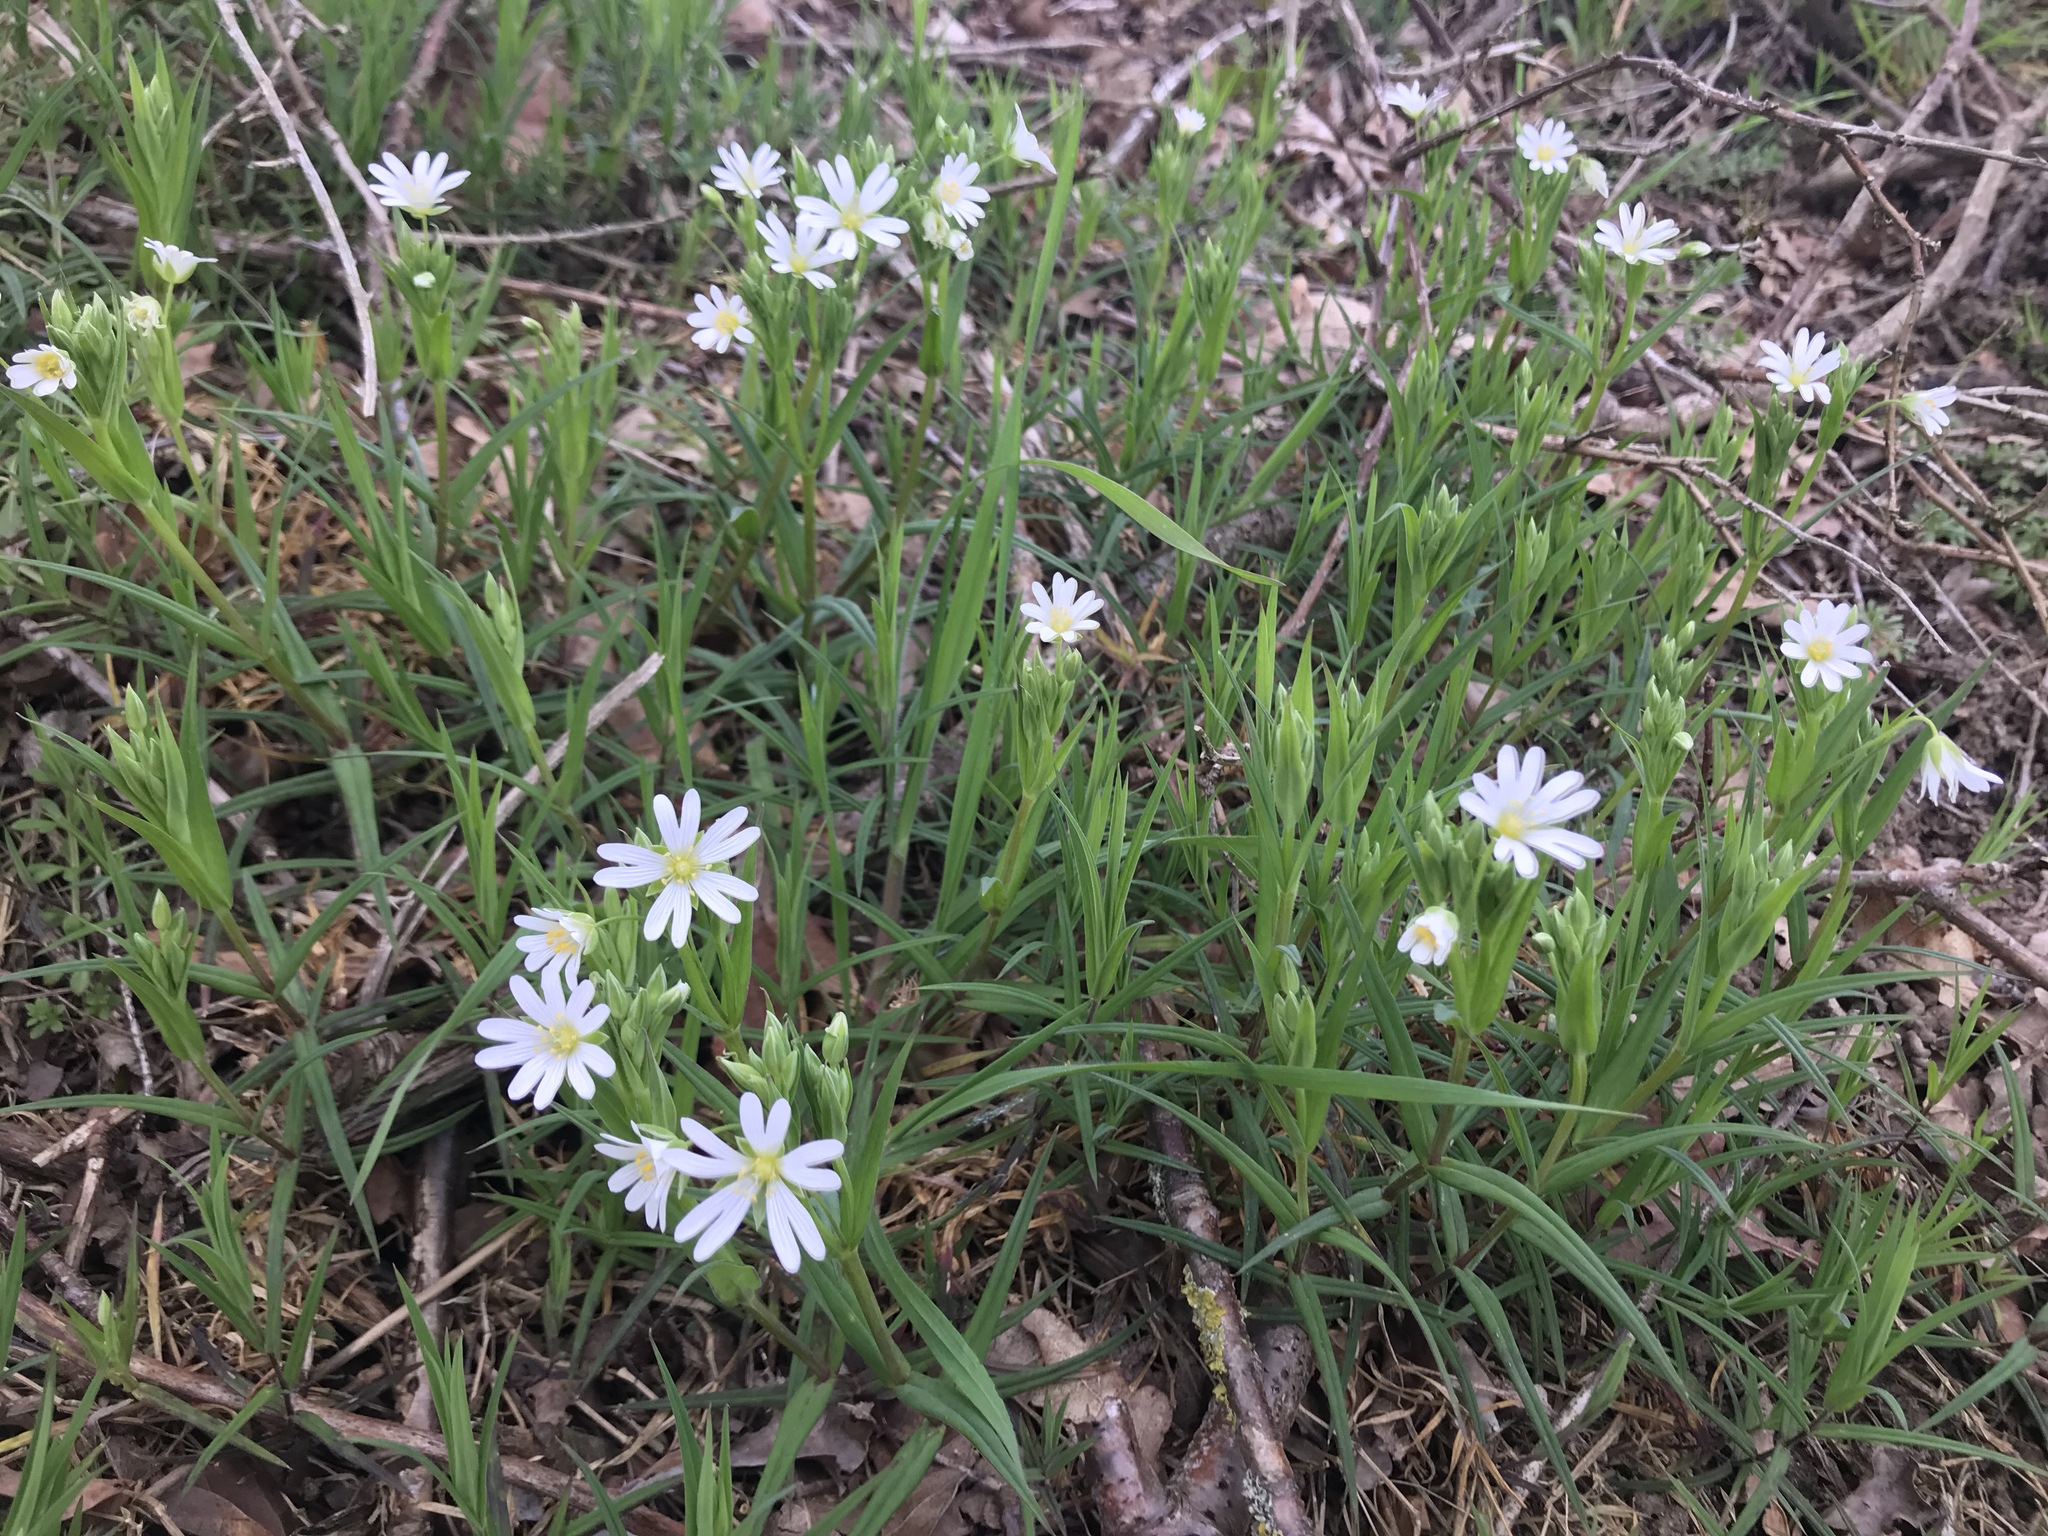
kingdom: Plantae
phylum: Tracheophyta
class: Magnoliopsida
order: Caryophyllales
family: Caryophyllaceae
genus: Rabelera
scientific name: Rabelera holostea
